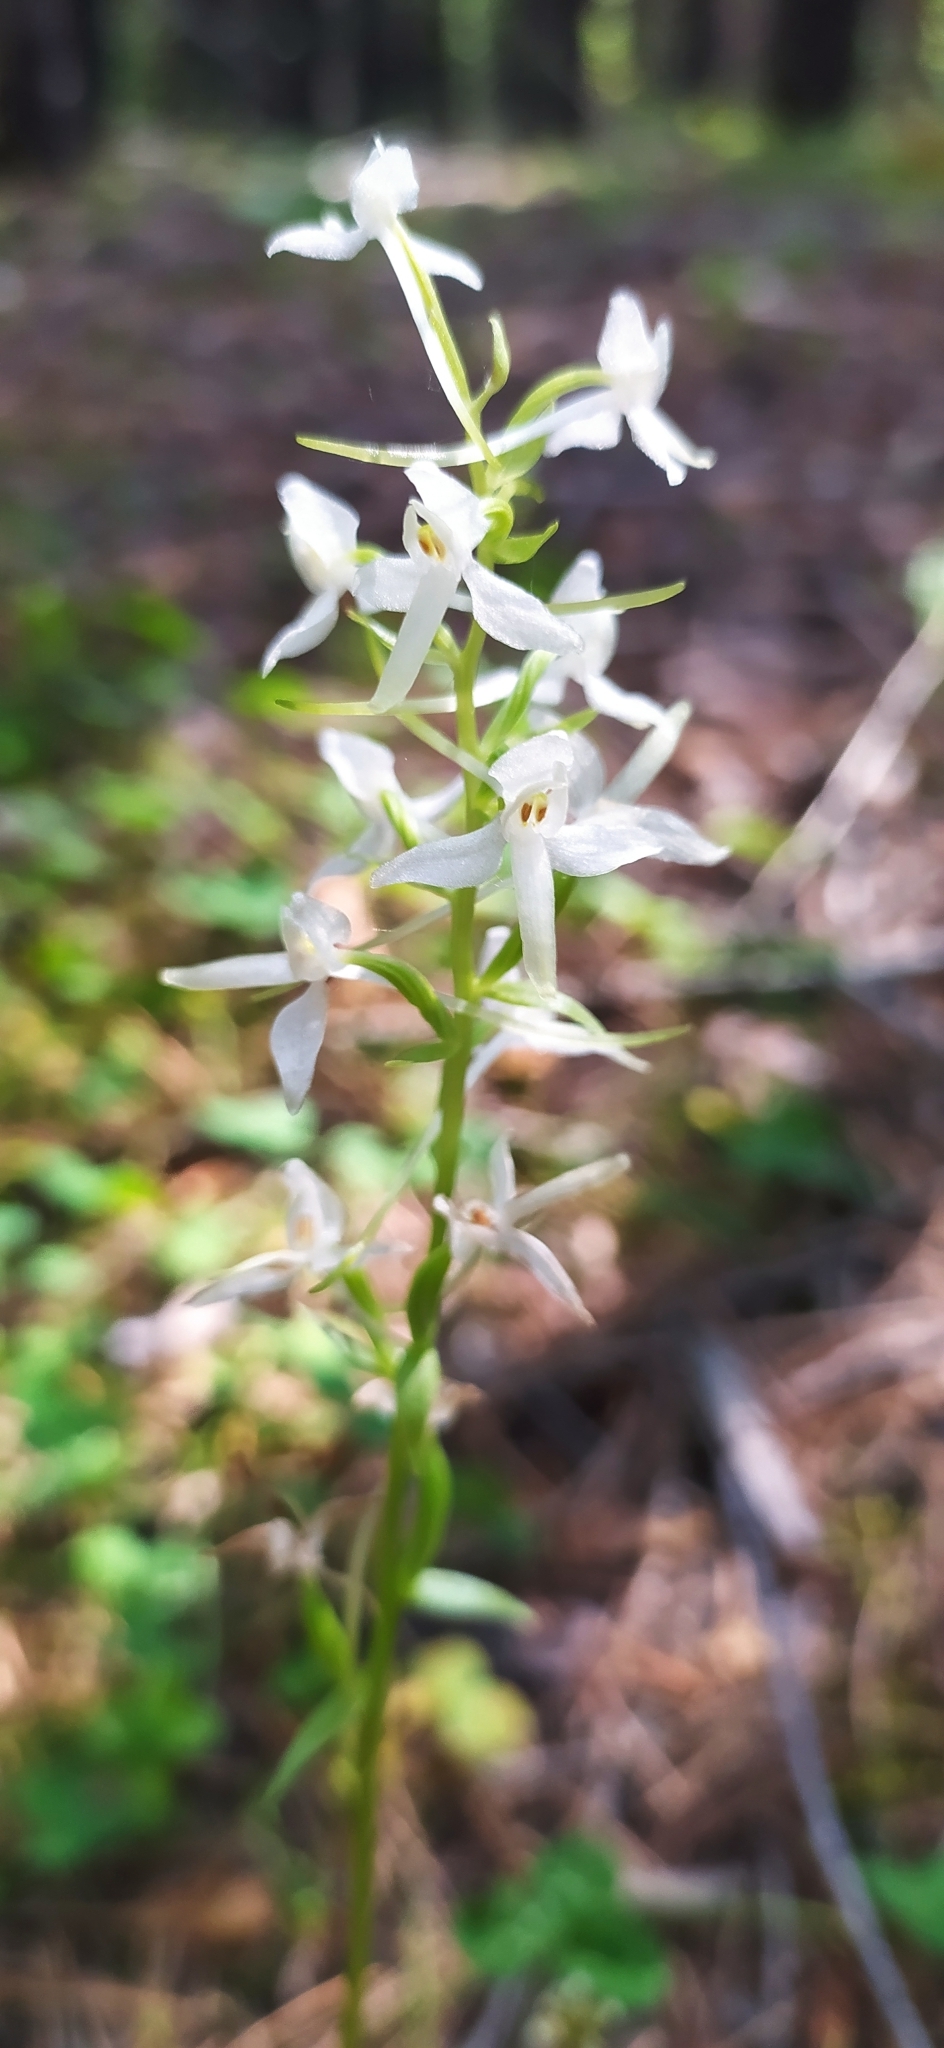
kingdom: Plantae
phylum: Tracheophyta
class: Liliopsida
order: Asparagales
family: Orchidaceae
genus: Platanthera
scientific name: Platanthera bifolia
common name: Lesser butterfly-orchid
